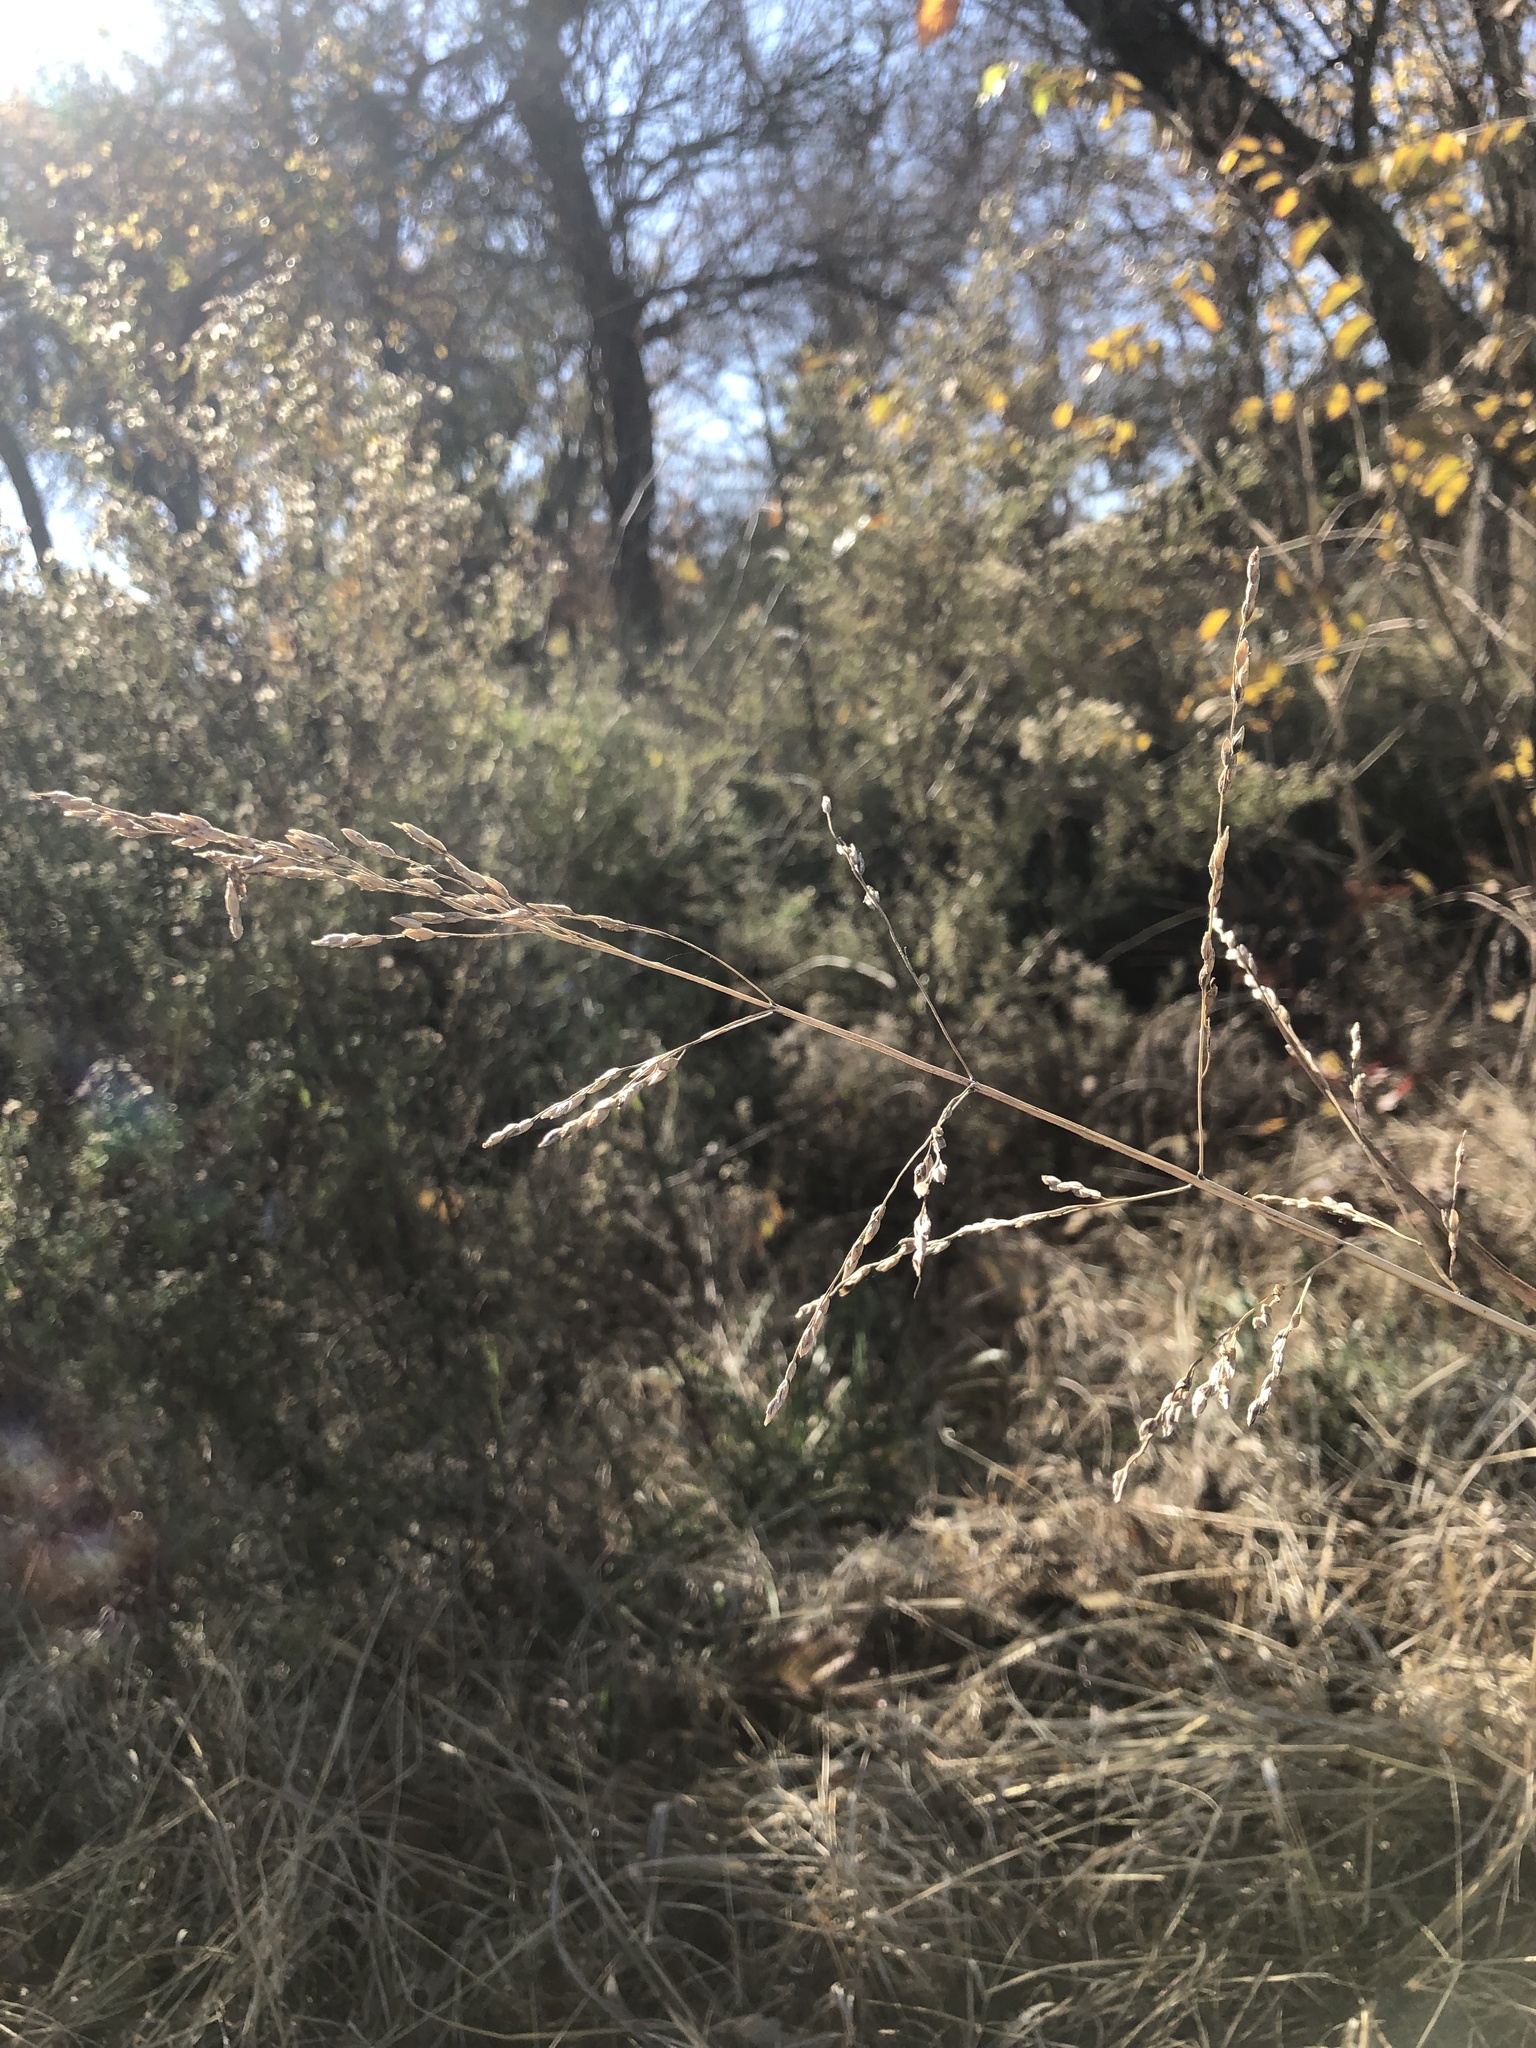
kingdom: Plantae
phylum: Tracheophyta
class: Liliopsida
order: Poales
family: Poaceae
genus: Sorghum
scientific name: Sorghum halepense
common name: Johnson-grass
